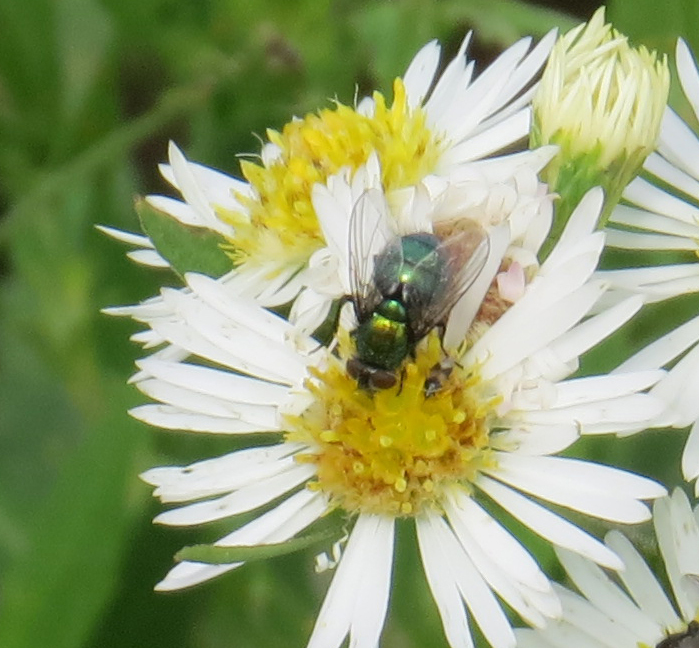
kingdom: Animalia
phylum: Arthropoda
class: Insecta
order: Diptera
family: Calliphoridae
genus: Lucilia
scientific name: Lucilia sericata
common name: Blow fly
